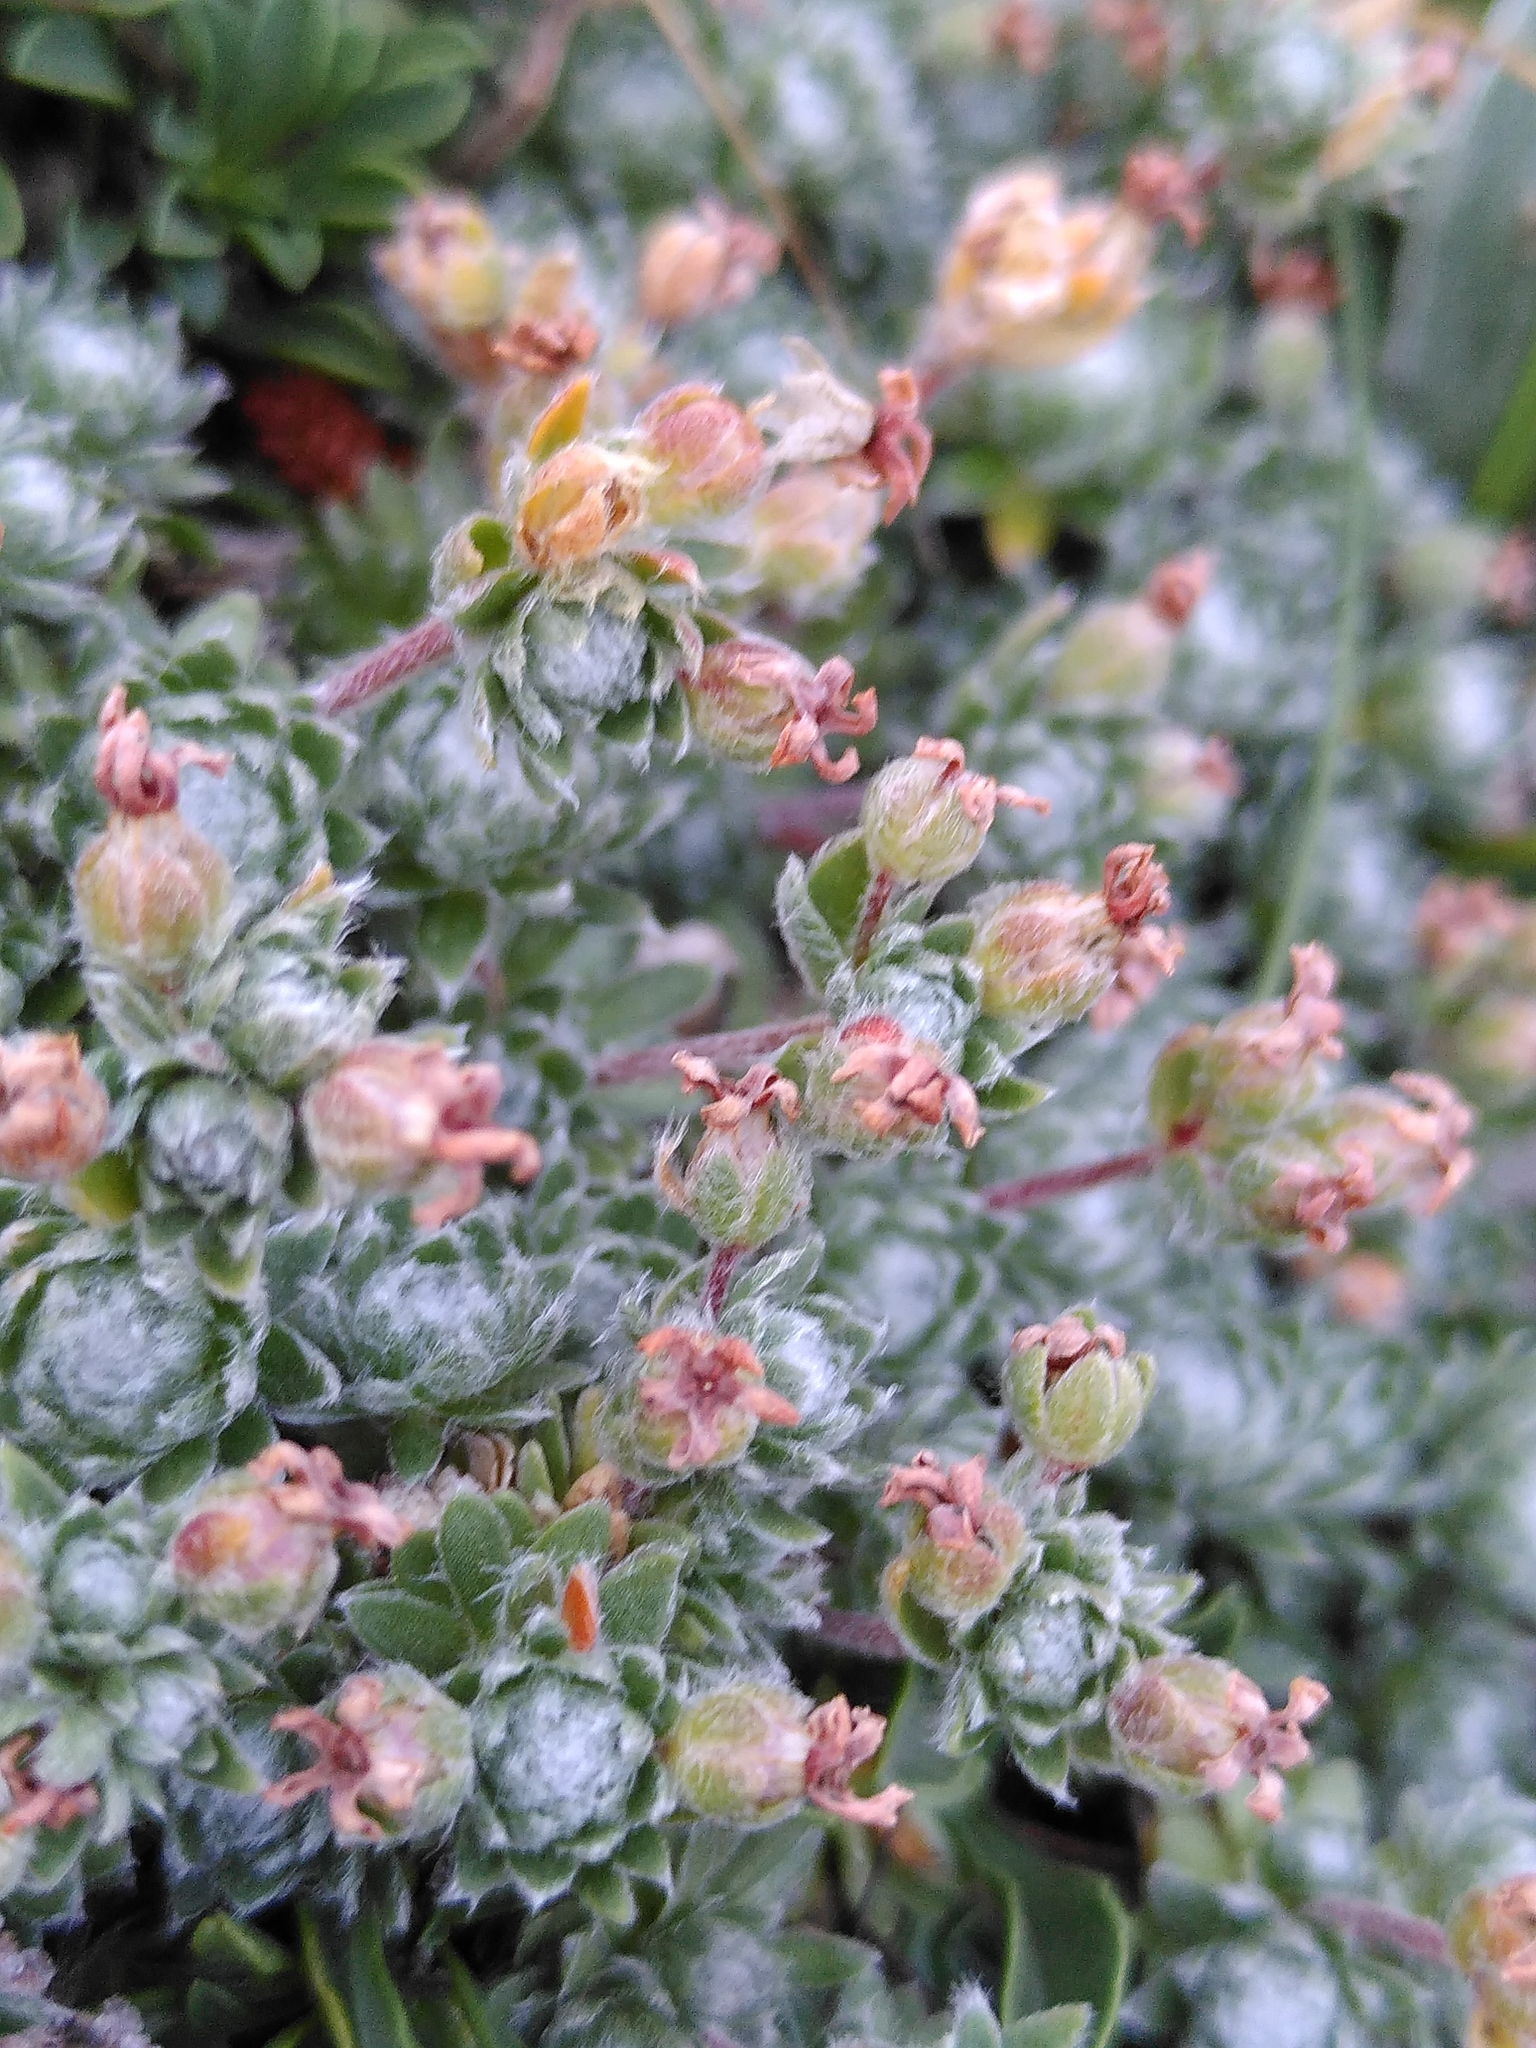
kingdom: Plantae
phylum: Tracheophyta
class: Magnoliopsida
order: Ericales
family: Primulaceae
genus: Androsace
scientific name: Androsace villosa
